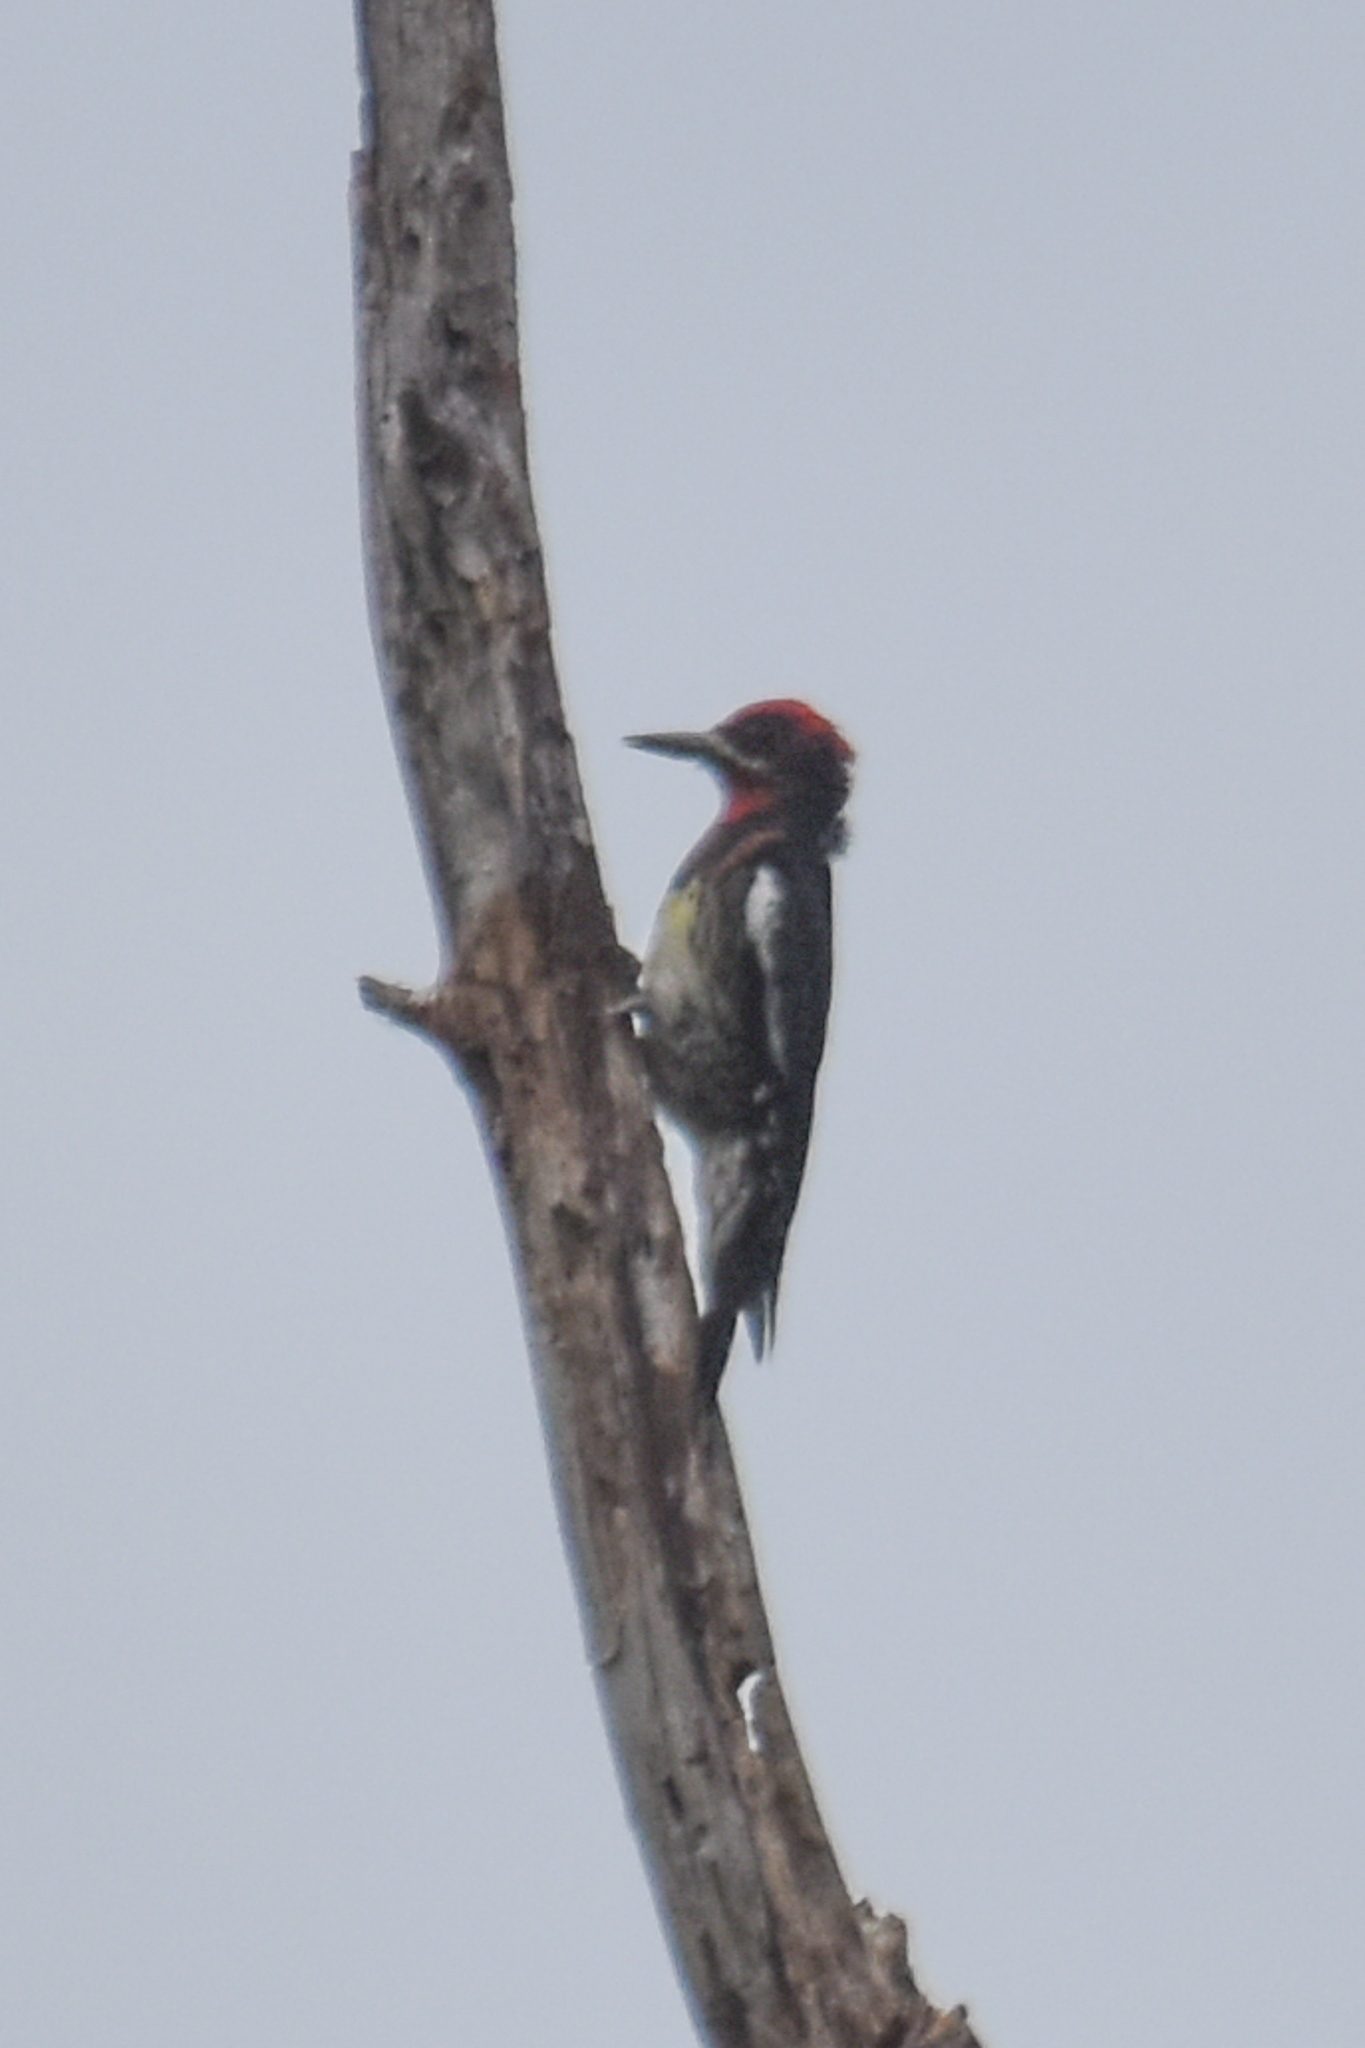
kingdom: Animalia
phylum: Chordata
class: Aves
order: Piciformes
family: Picidae
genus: Sphyrapicus
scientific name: Sphyrapicus nuchalis
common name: Red-naped sapsucker
